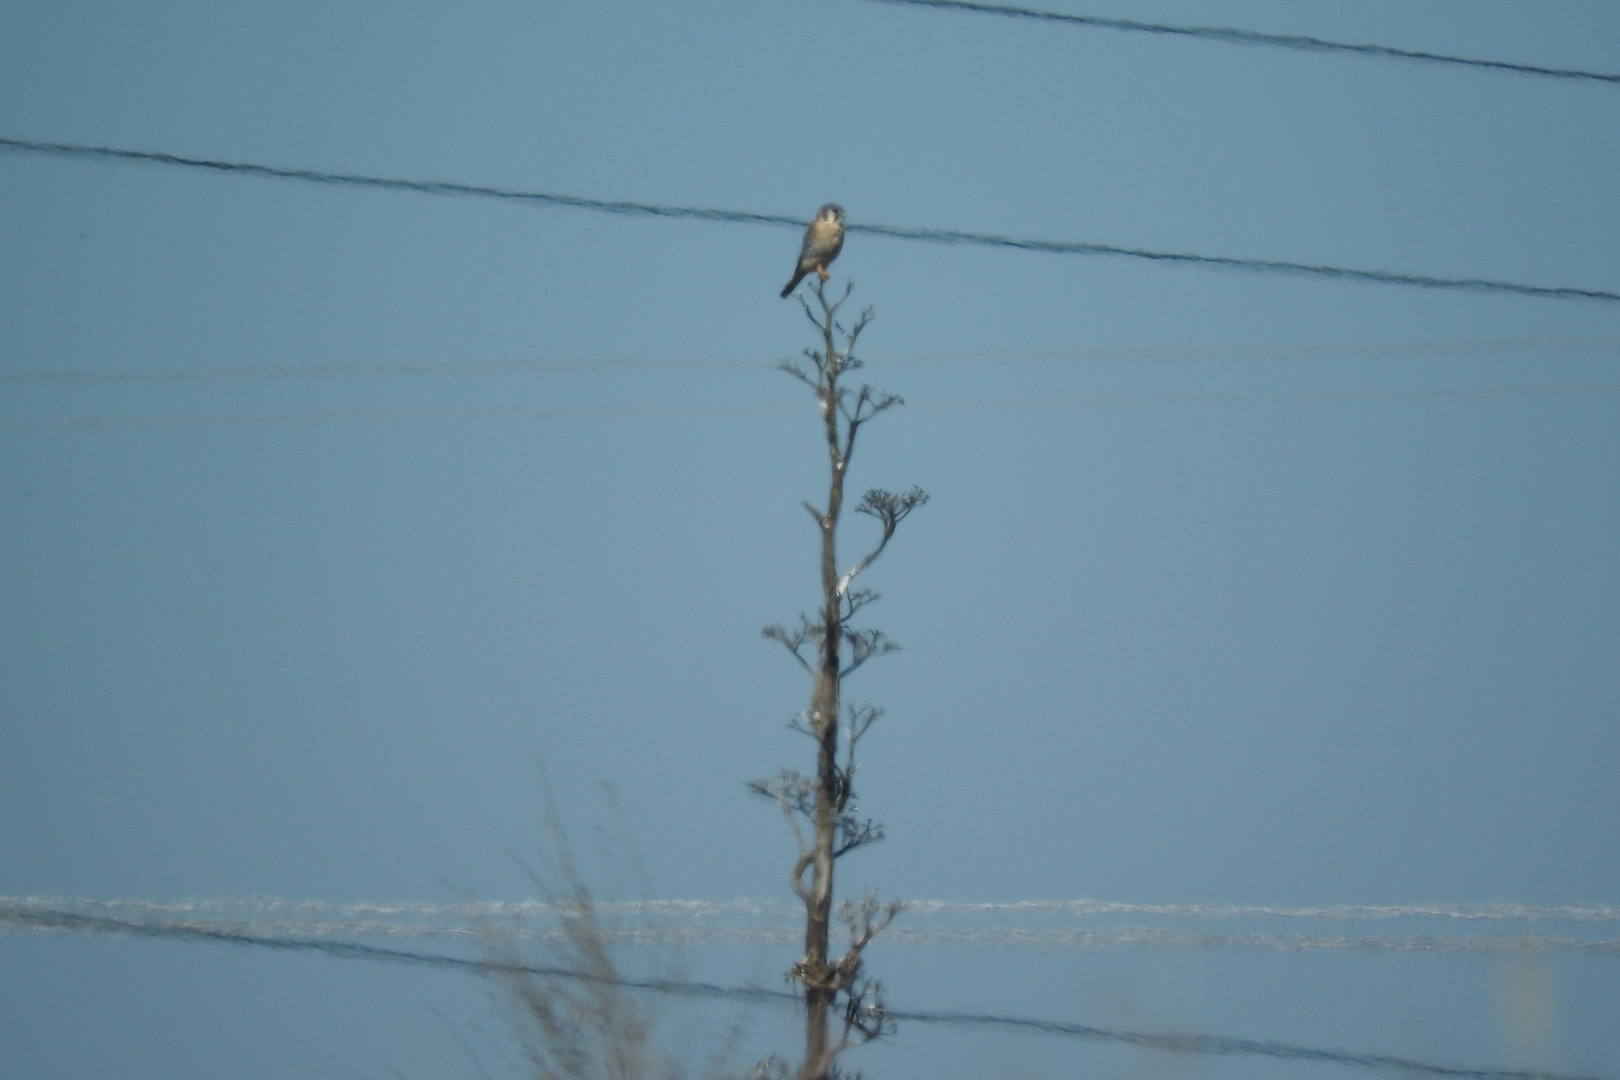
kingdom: Animalia
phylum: Chordata
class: Aves
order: Falconiformes
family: Falconidae
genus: Falco
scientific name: Falco sparverius
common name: American kestrel
